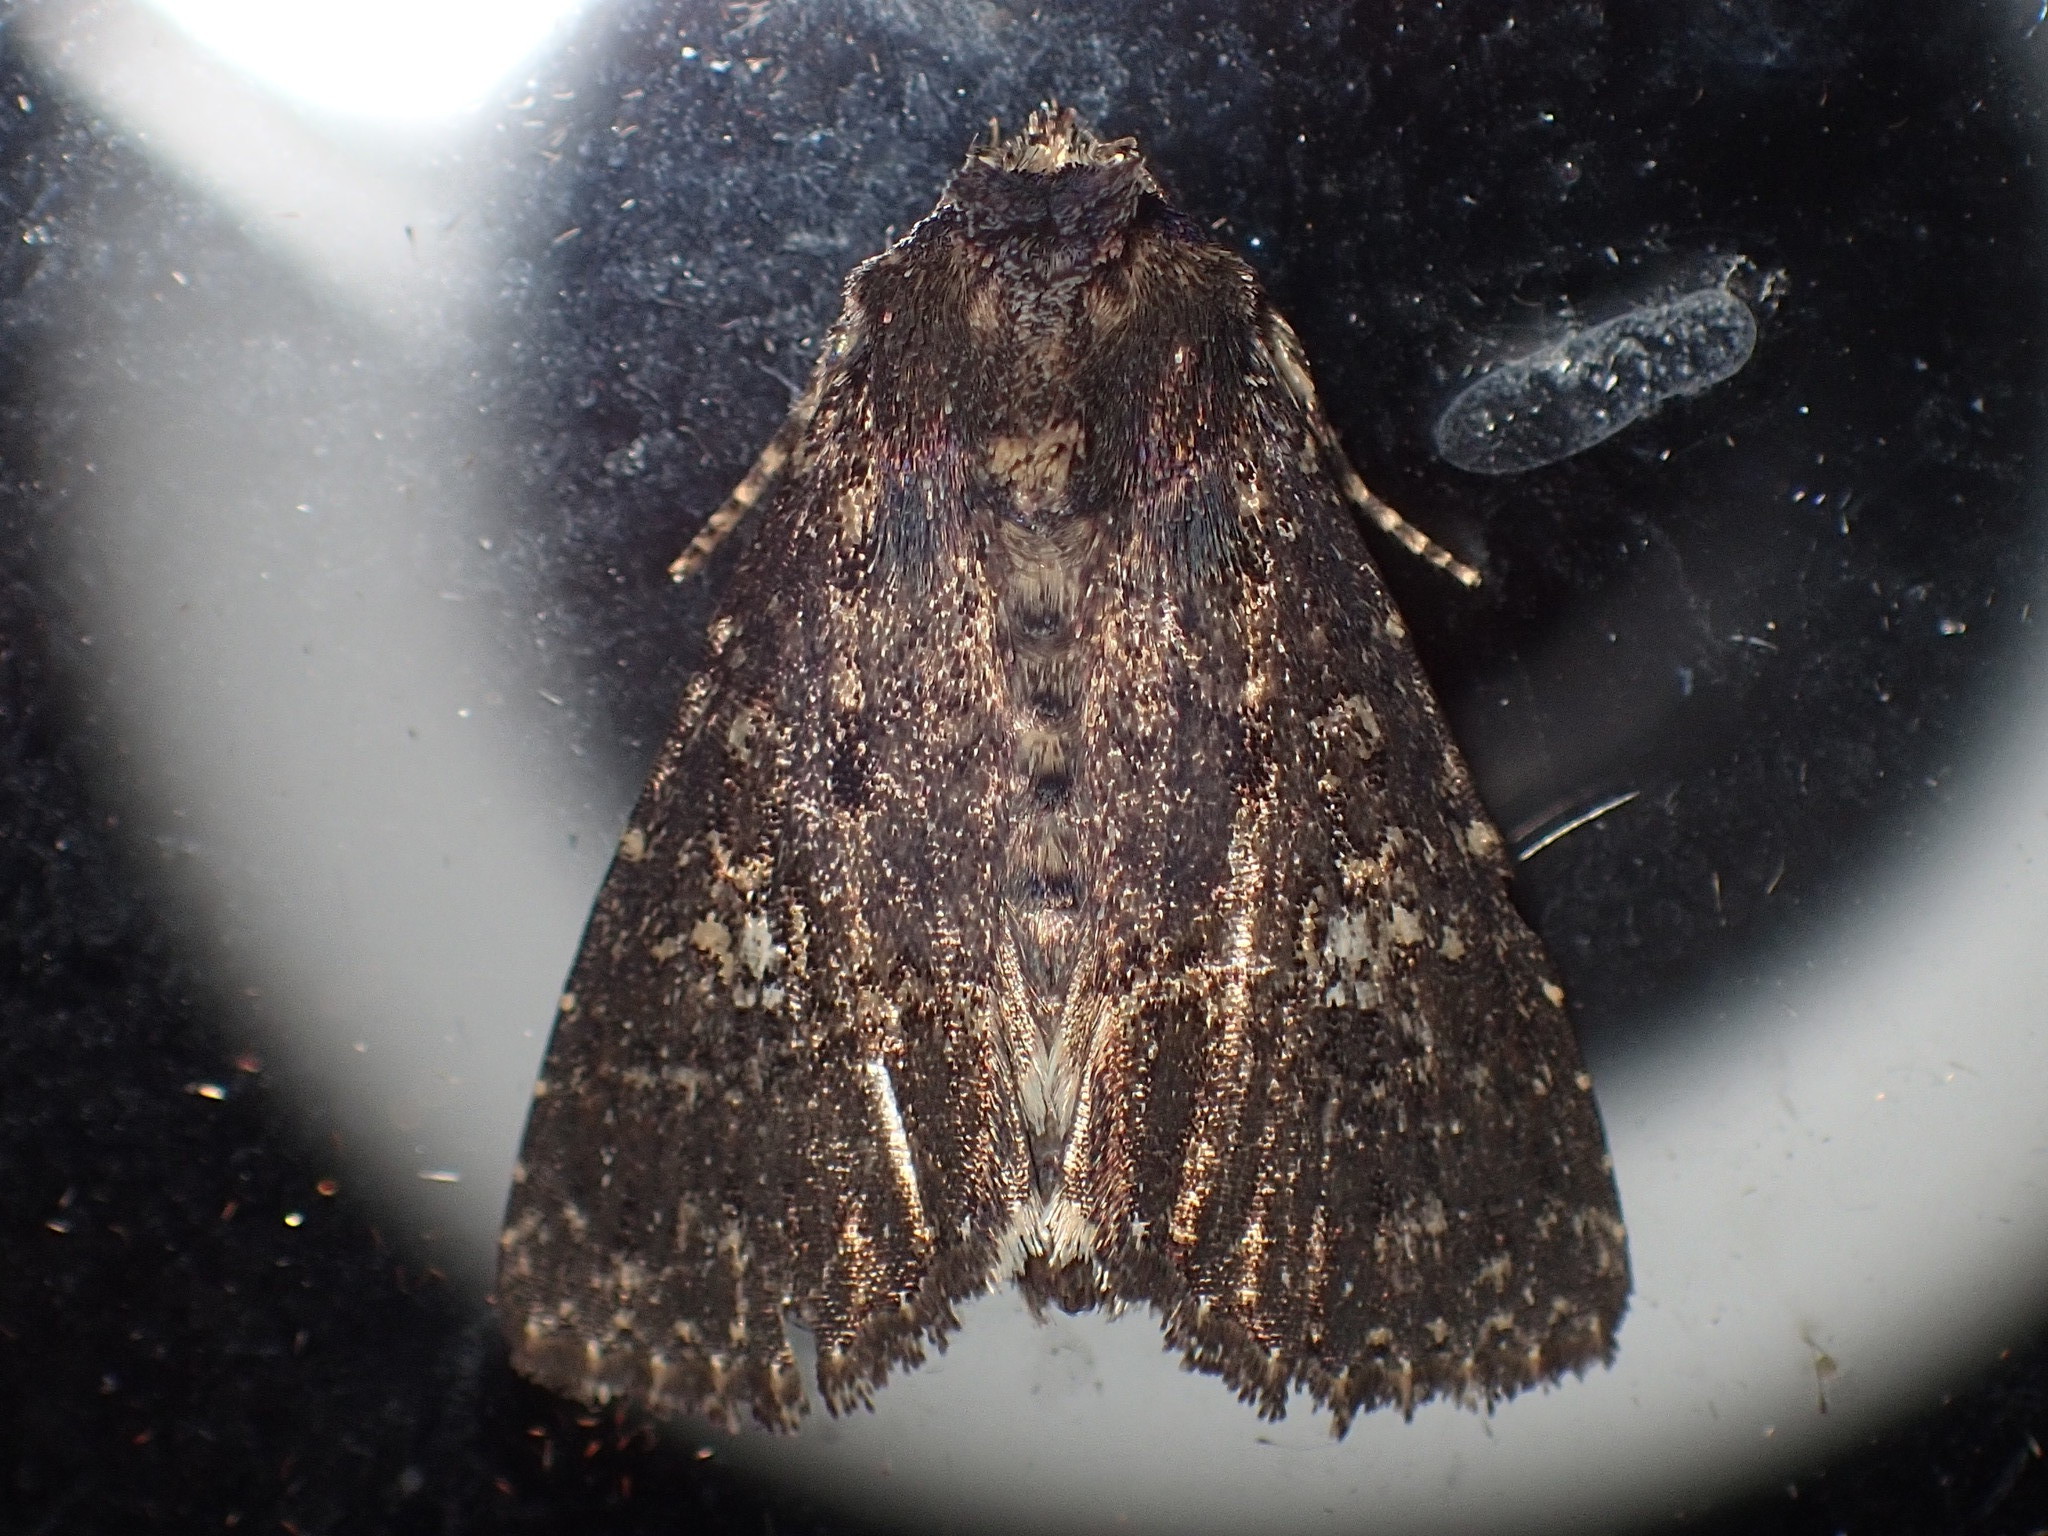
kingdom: Animalia
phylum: Arthropoda
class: Insecta
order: Lepidoptera
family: Noctuidae
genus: Condica
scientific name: Condica vecors
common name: Dusky groundling
